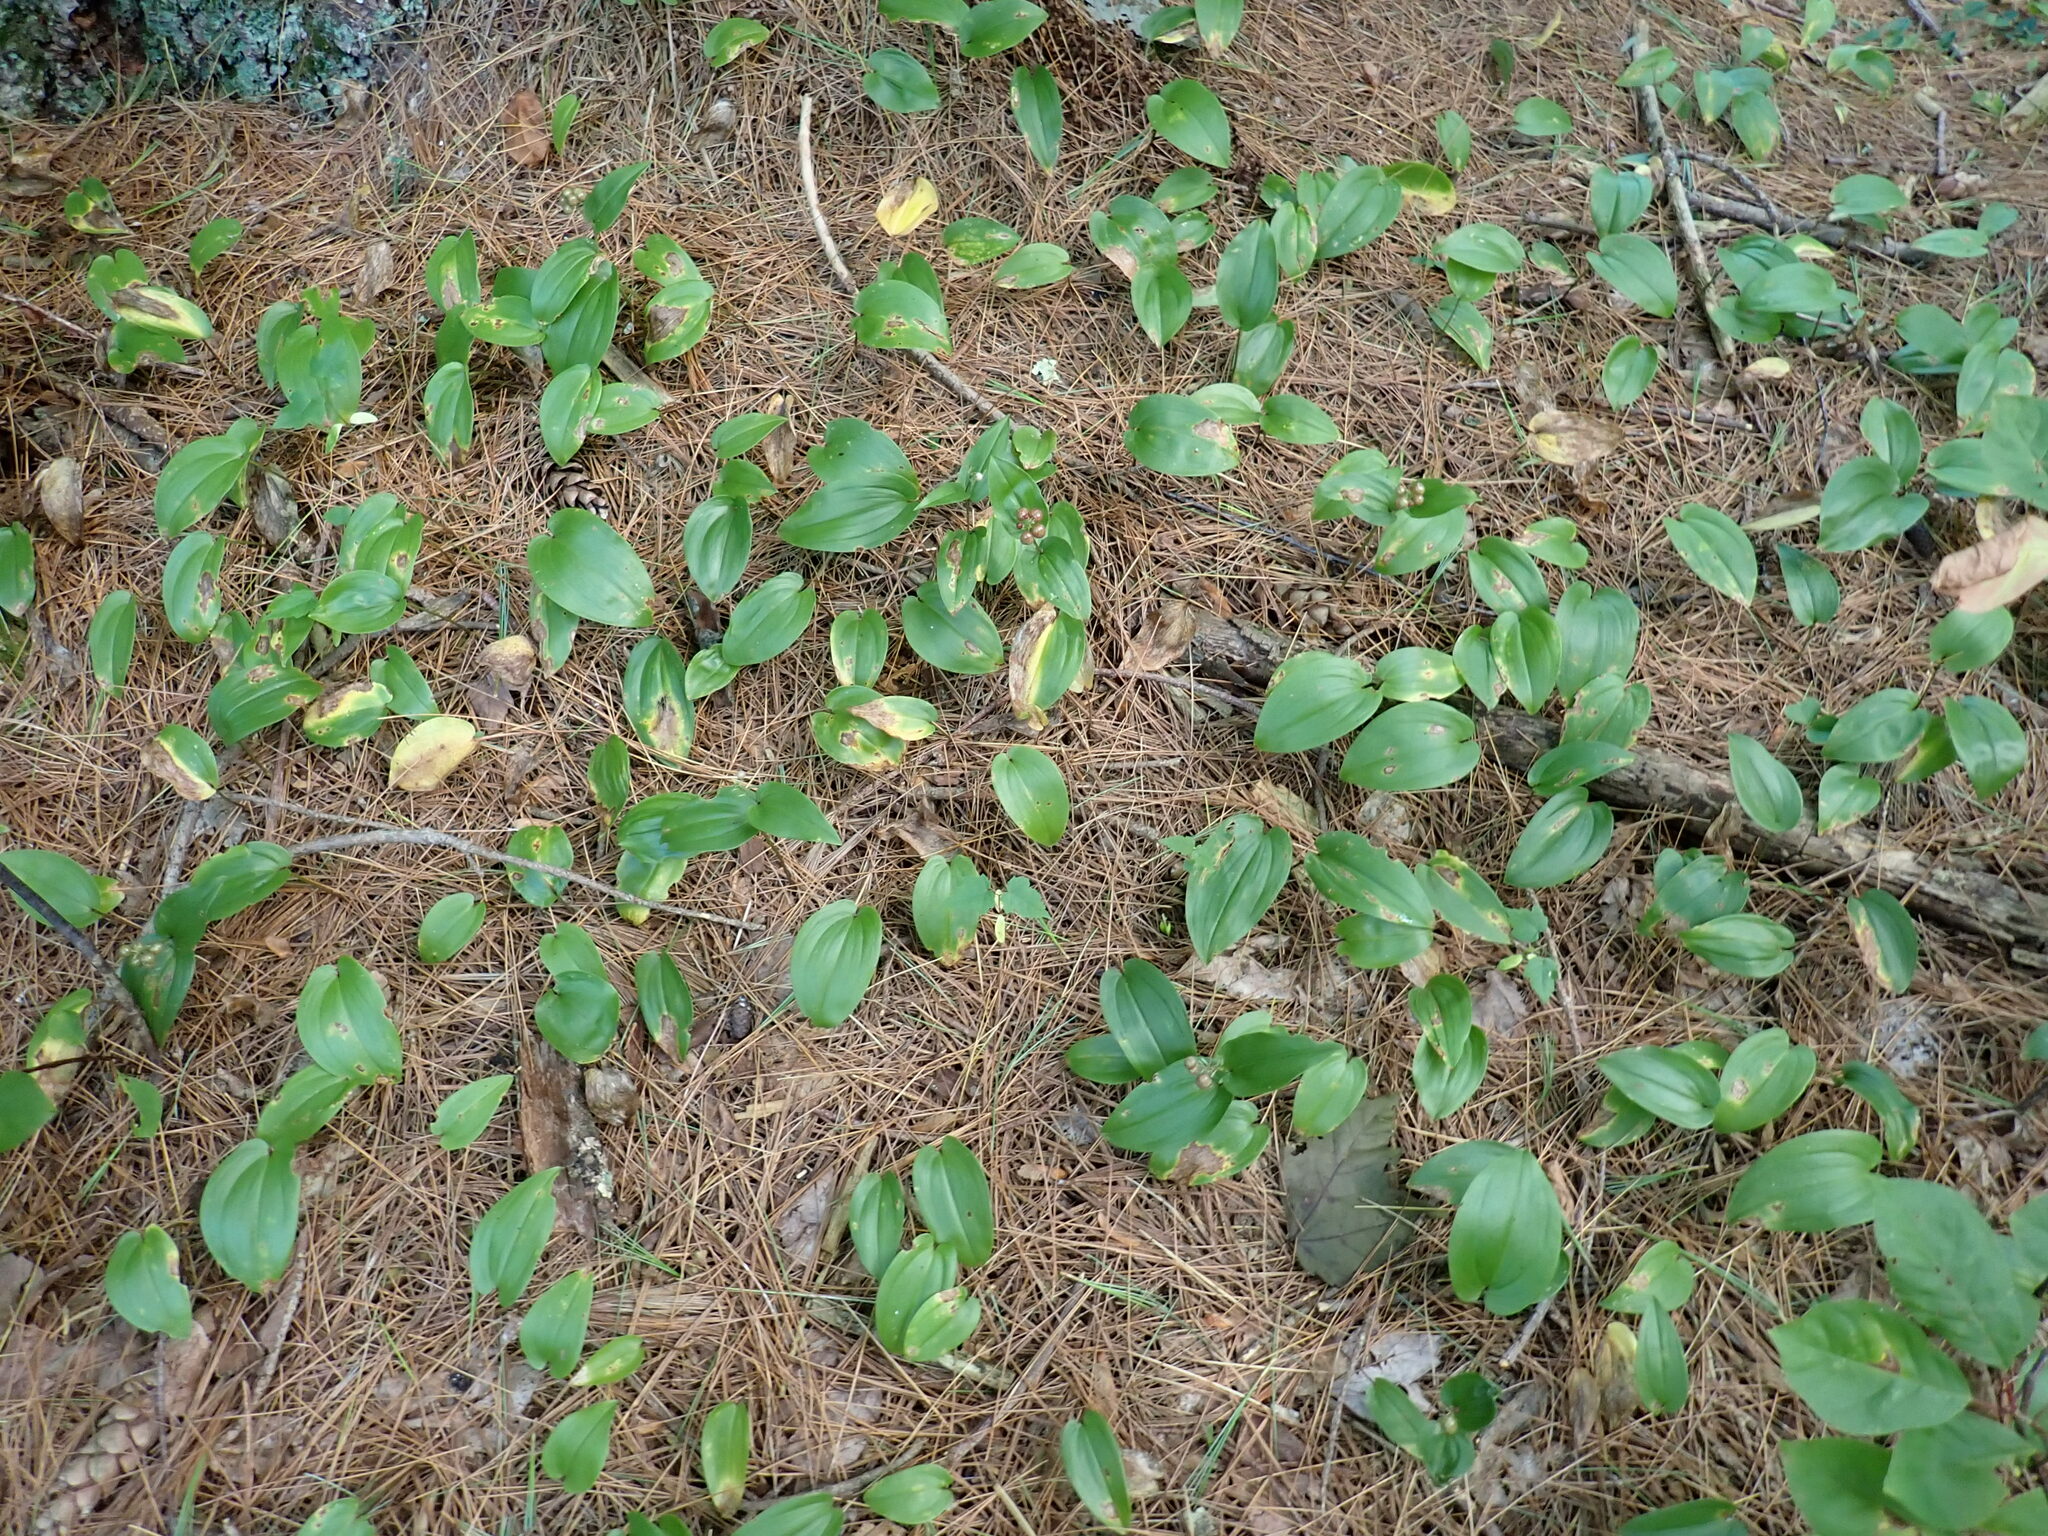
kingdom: Plantae
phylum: Tracheophyta
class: Liliopsida
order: Asparagales
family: Asparagaceae
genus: Maianthemum
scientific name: Maianthemum canadense
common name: False lily-of-the-valley
